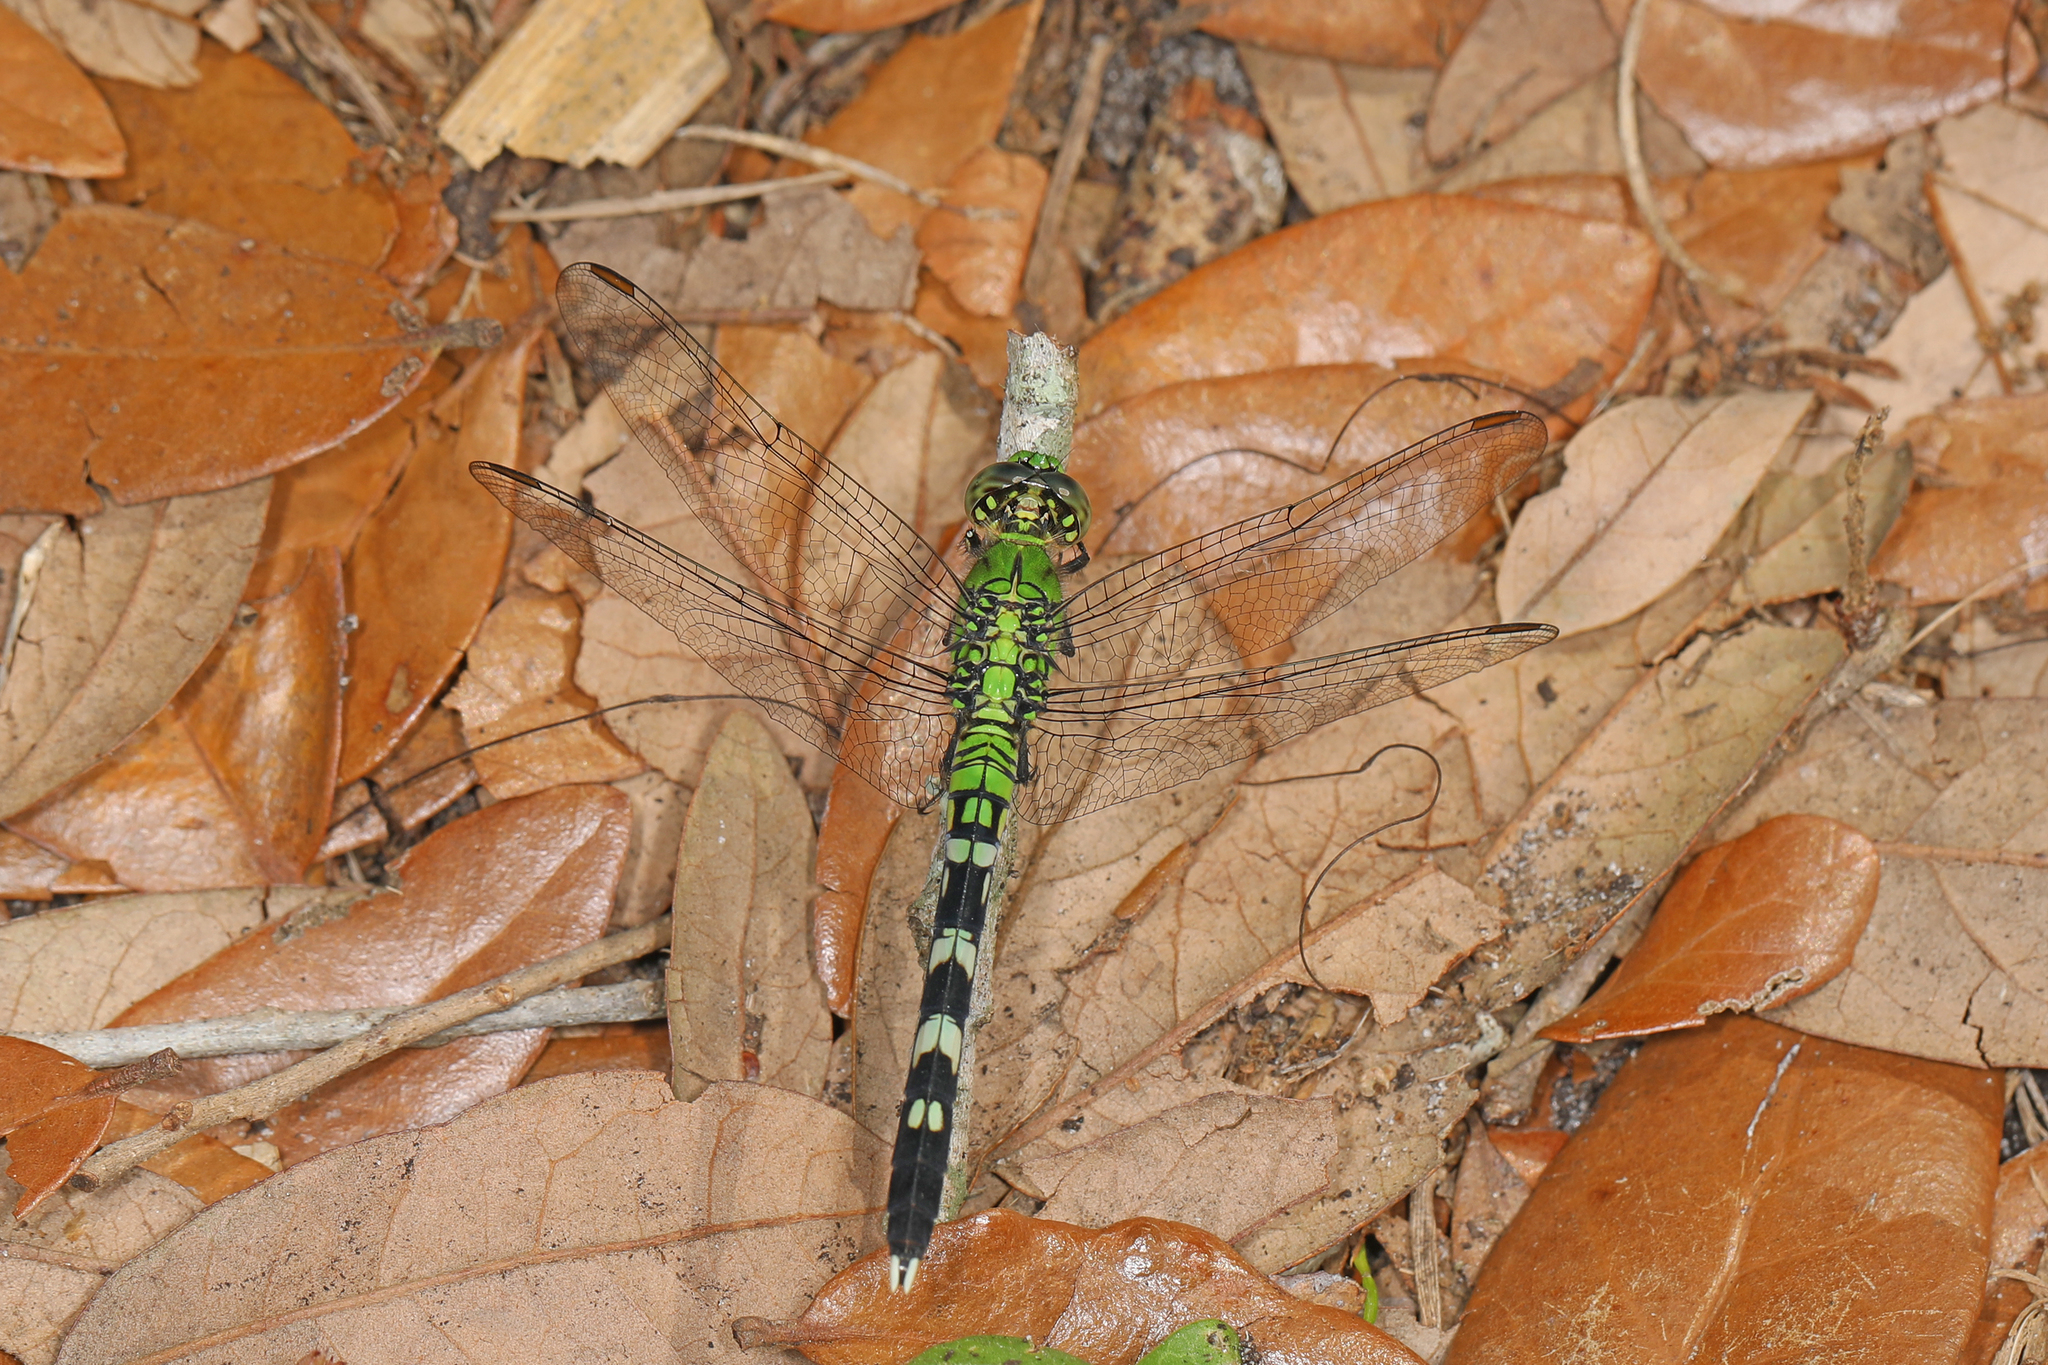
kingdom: Animalia
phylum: Arthropoda
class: Insecta
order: Odonata
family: Libellulidae
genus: Erythemis
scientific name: Erythemis simplicicollis
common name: Eastern pondhawk
